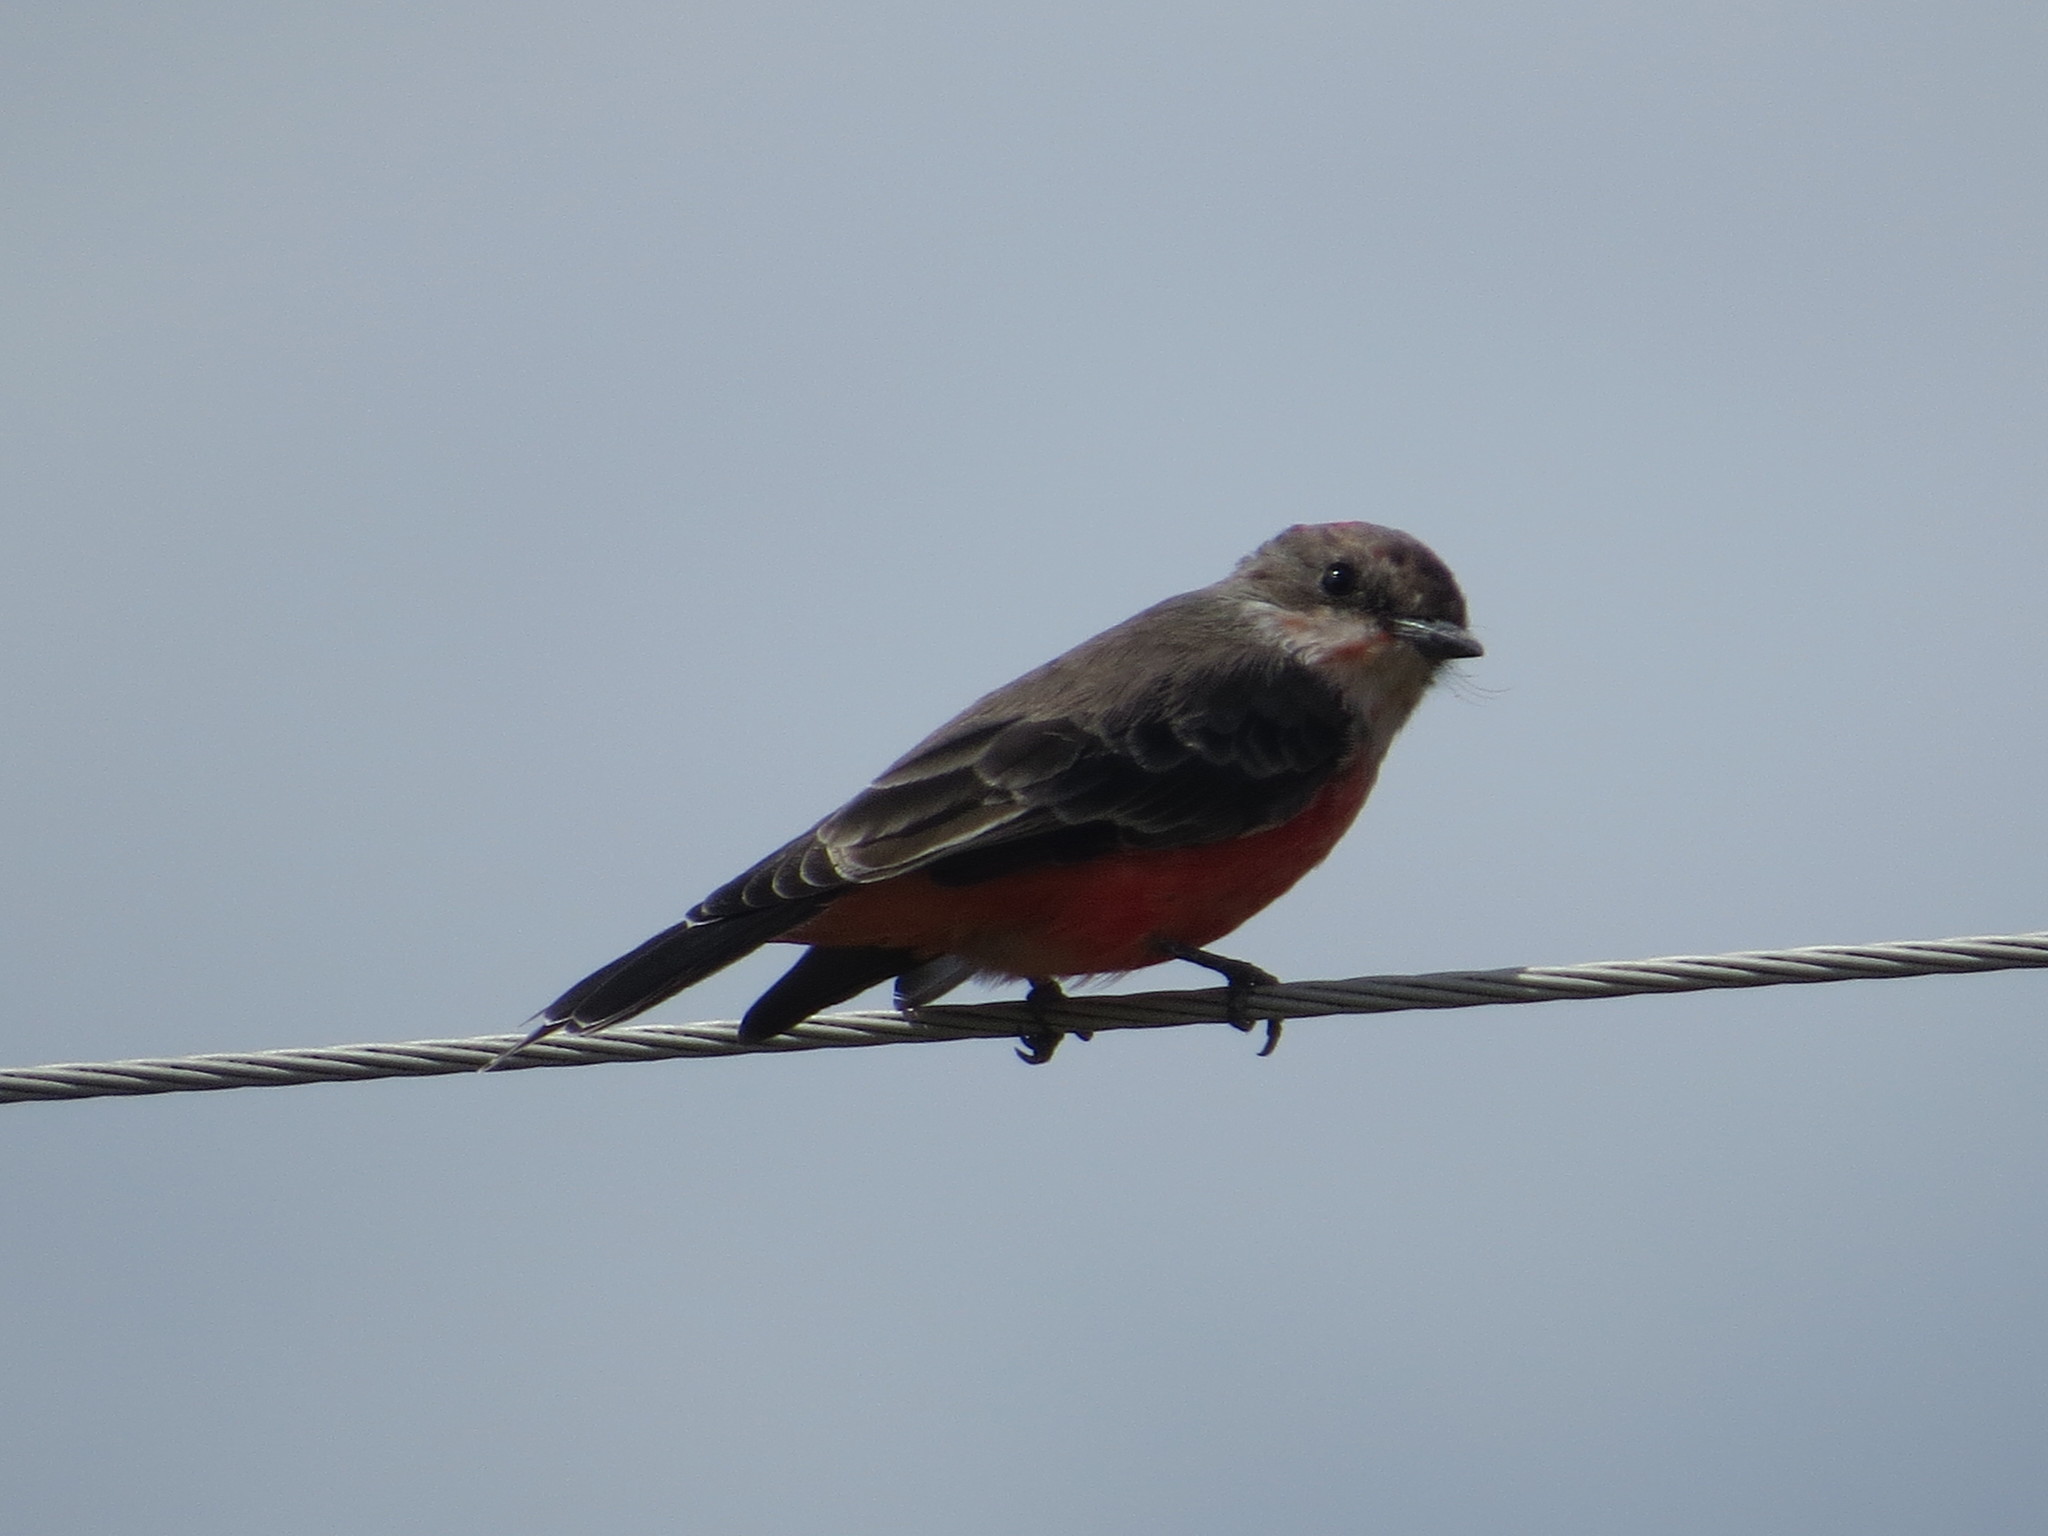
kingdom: Animalia
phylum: Chordata
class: Aves
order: Passeriformes
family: Tyrannidae
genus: Pyrocephalus
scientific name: Pyrocephalus rubinus
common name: Vermilion flycatcher
